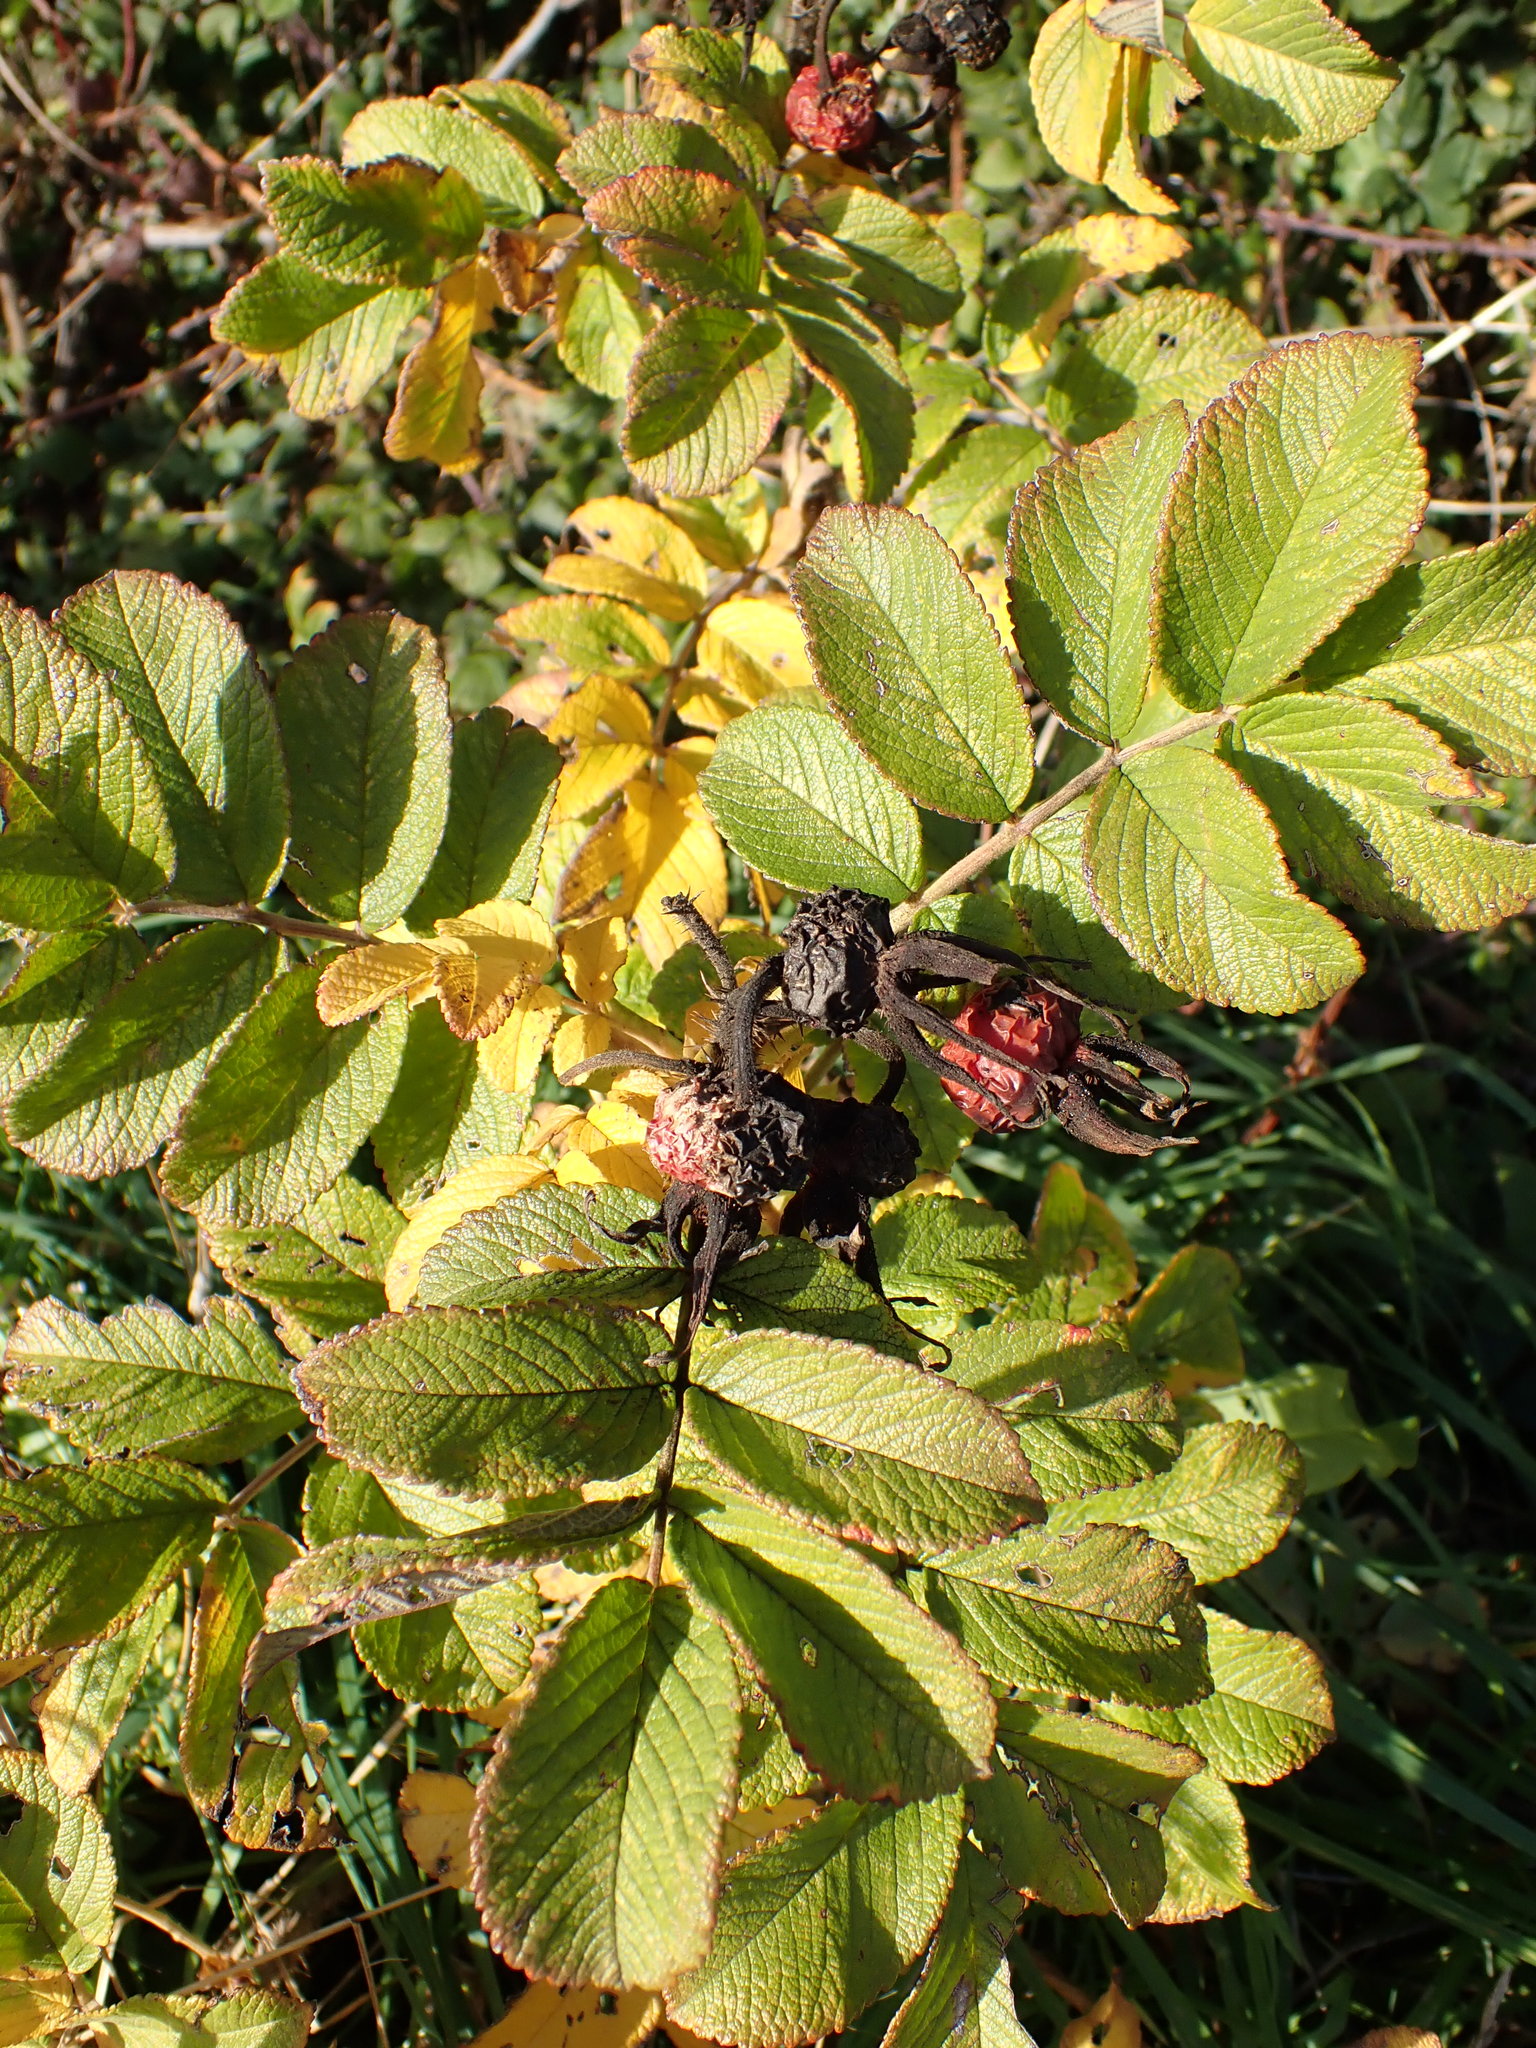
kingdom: Plantae
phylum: Tracheophyta
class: Magnoliopsida
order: Rosales
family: Rosaceae
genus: Rosa
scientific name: Rosa rugosa
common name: Japanese rose
